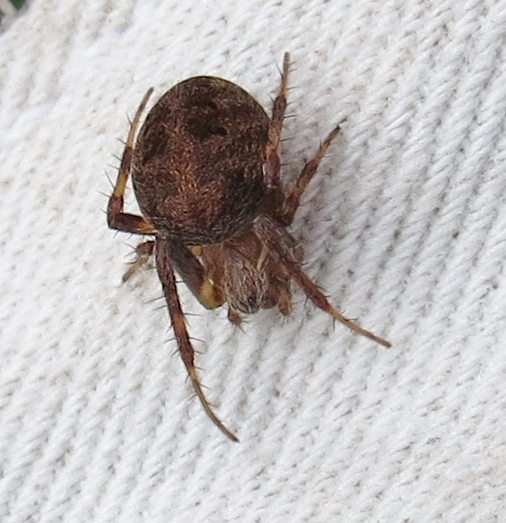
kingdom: Animalia
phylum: Arthropoda
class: Arachnida
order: Araneae
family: Araneidae
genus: Neoscona
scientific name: Neoscona arabesca
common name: Orb weavers
